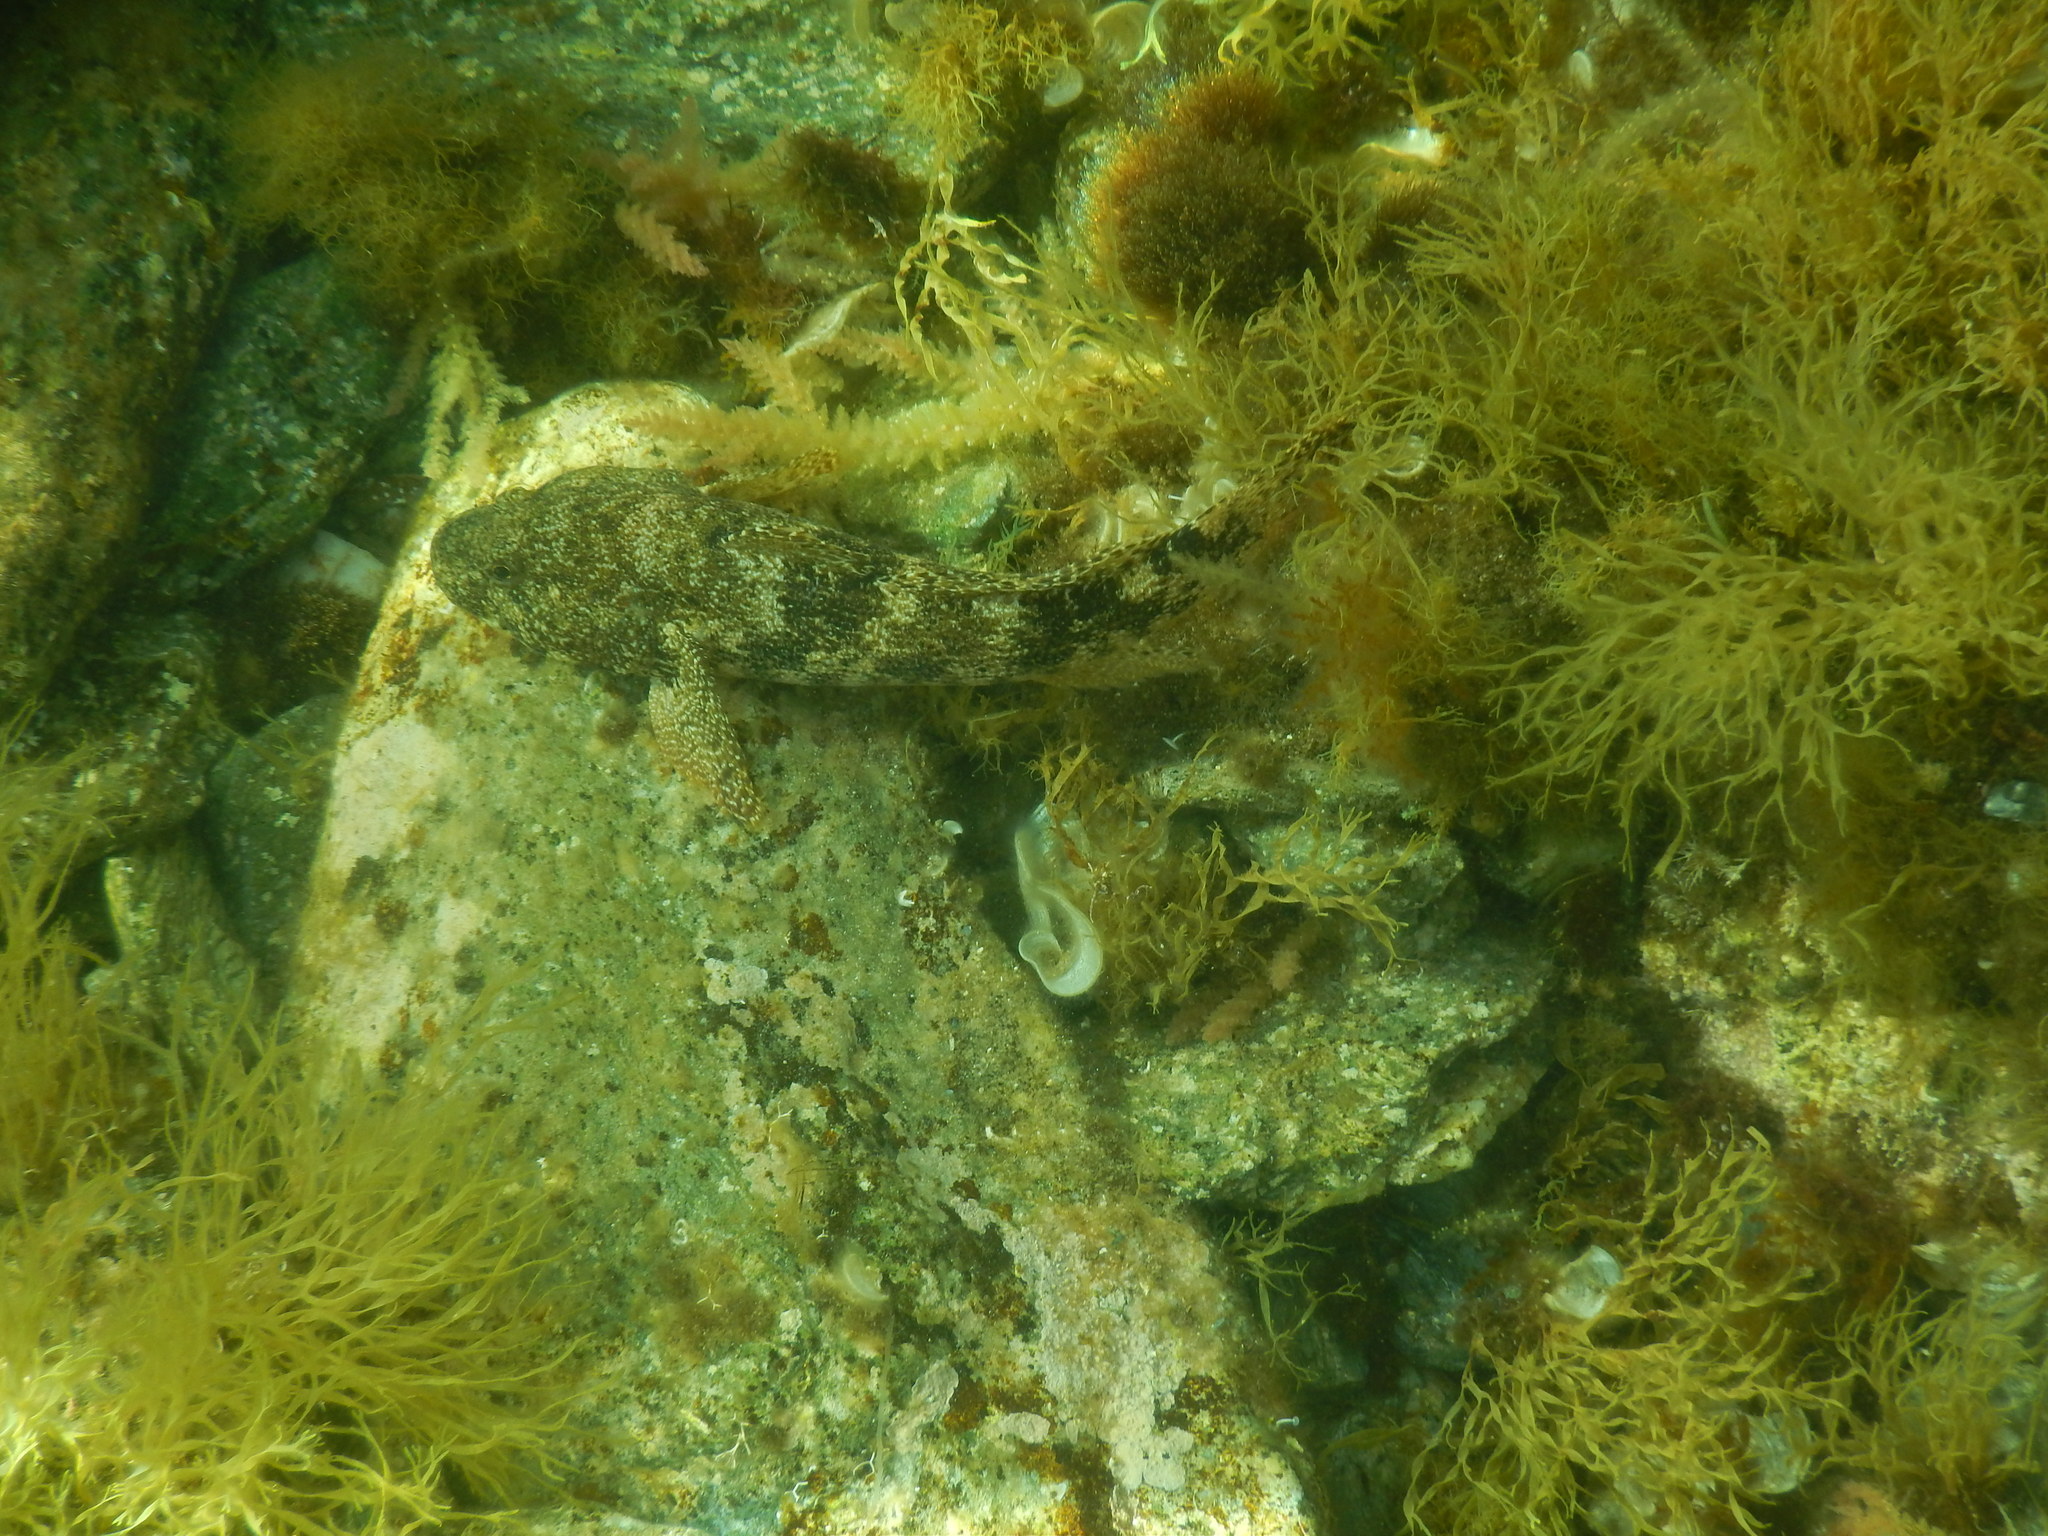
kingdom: Animalia
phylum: Chordata
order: Perciformes
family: Gobiidae
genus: Gobius
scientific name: Gobius cobitis
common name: Giant goby
